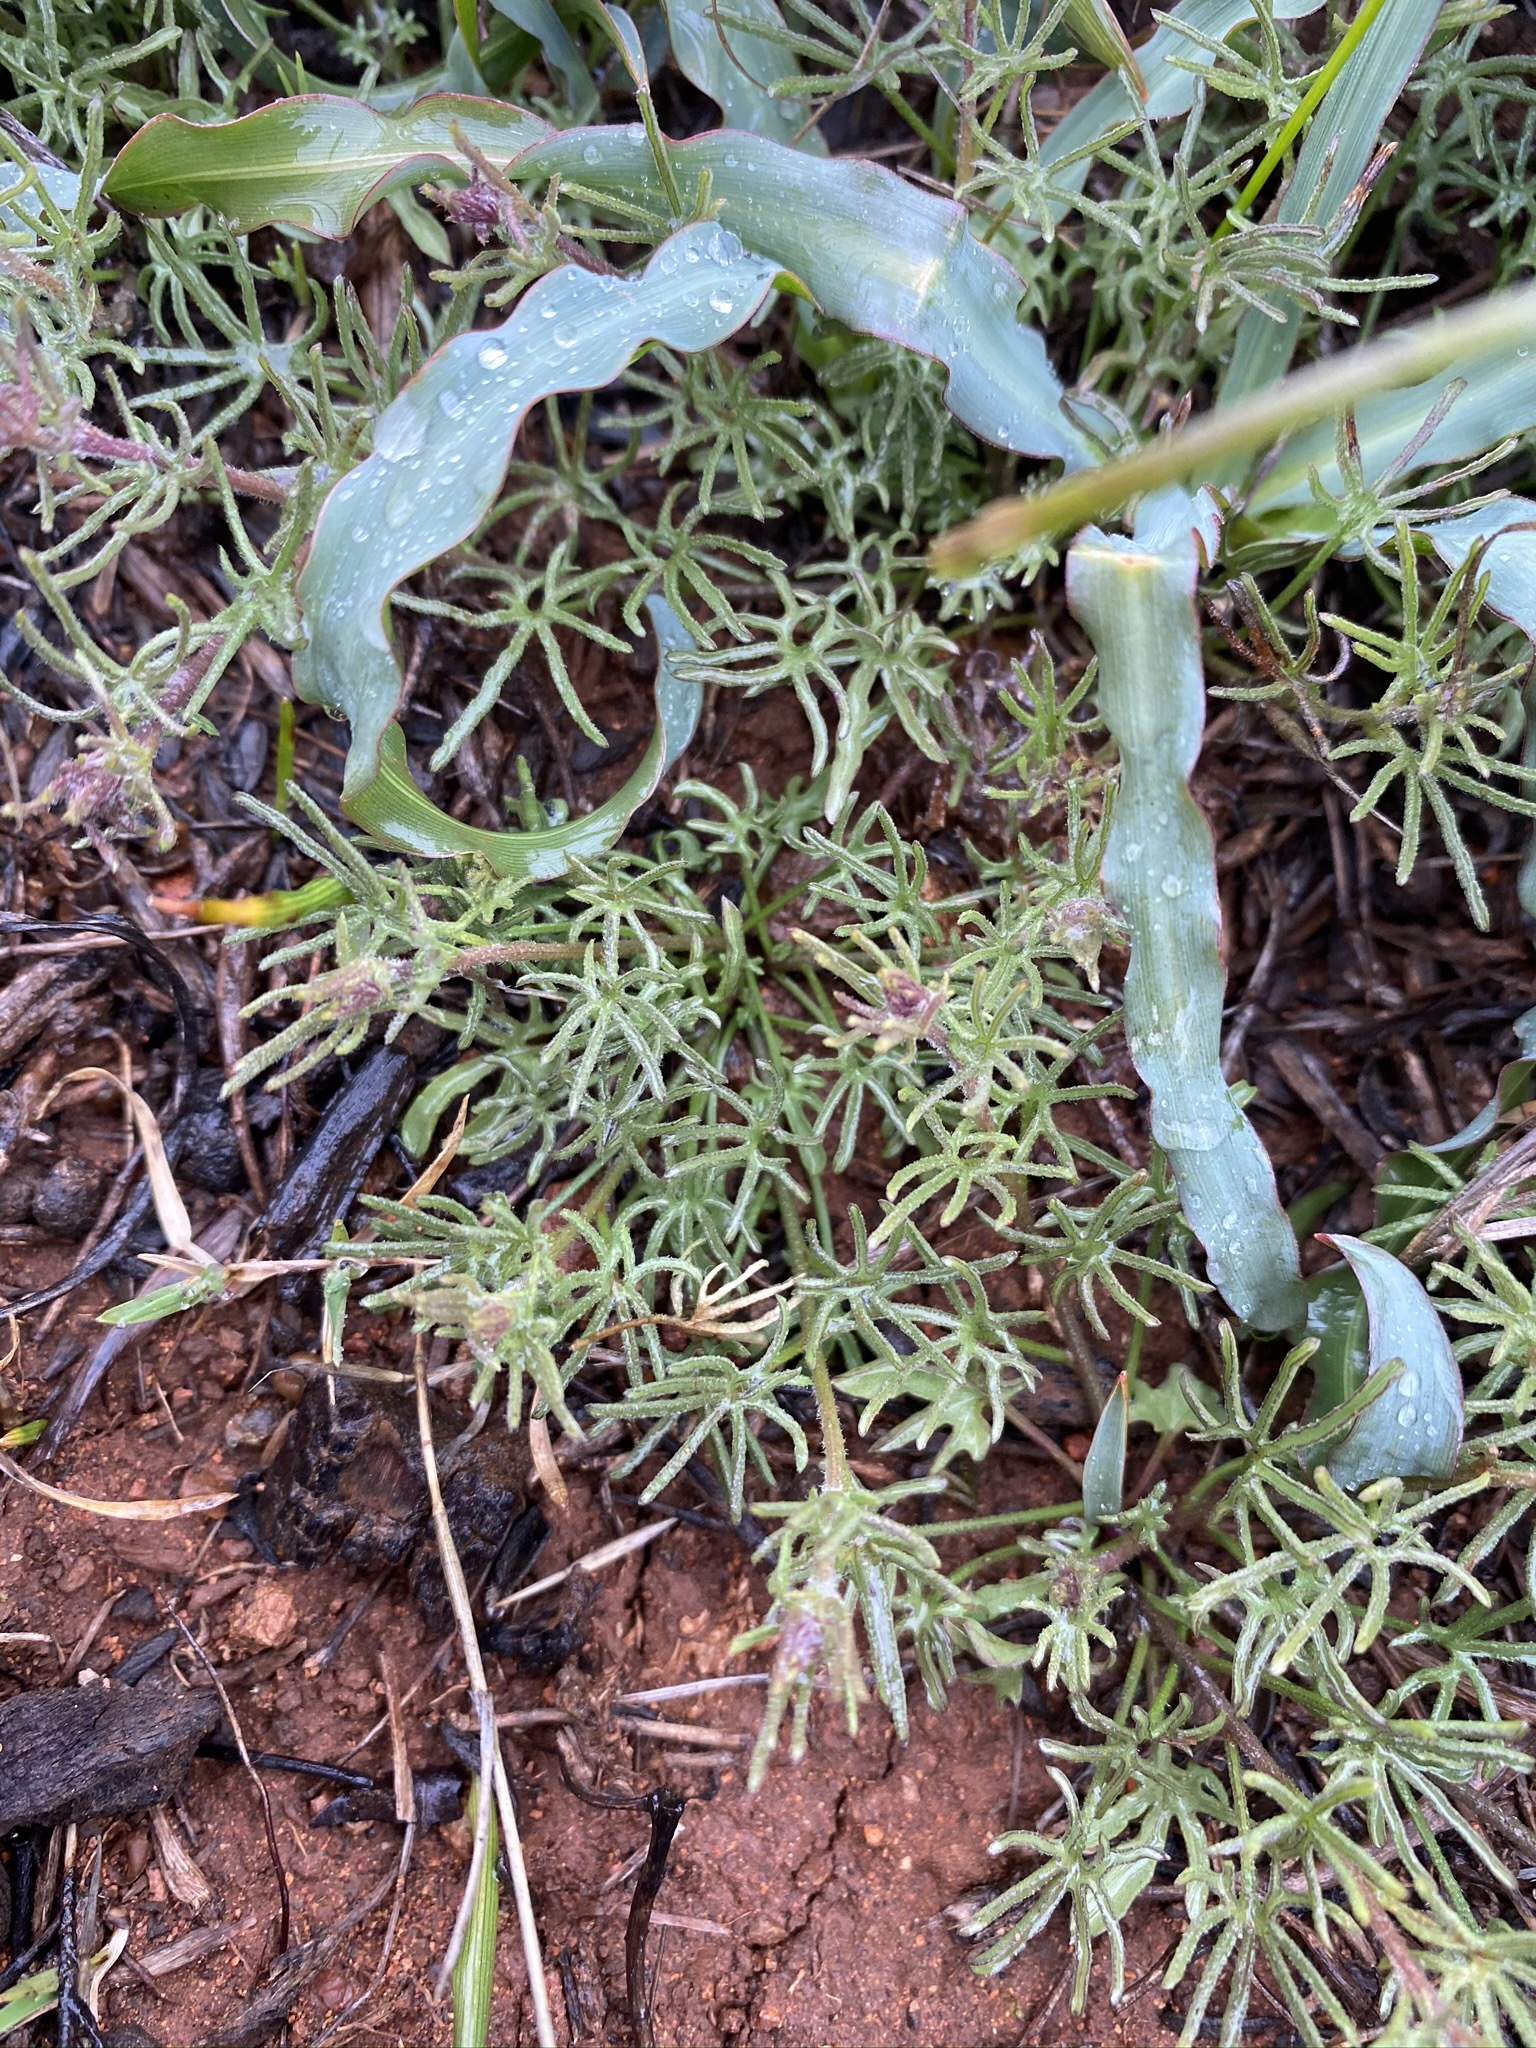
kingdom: Plantae
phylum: Tracheophyta
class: Magnoliopsida
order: Solanales
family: Convolvulaceae
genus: Calystegia
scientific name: Calystegia stebbinsii
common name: Stebbins's-morning-glory
